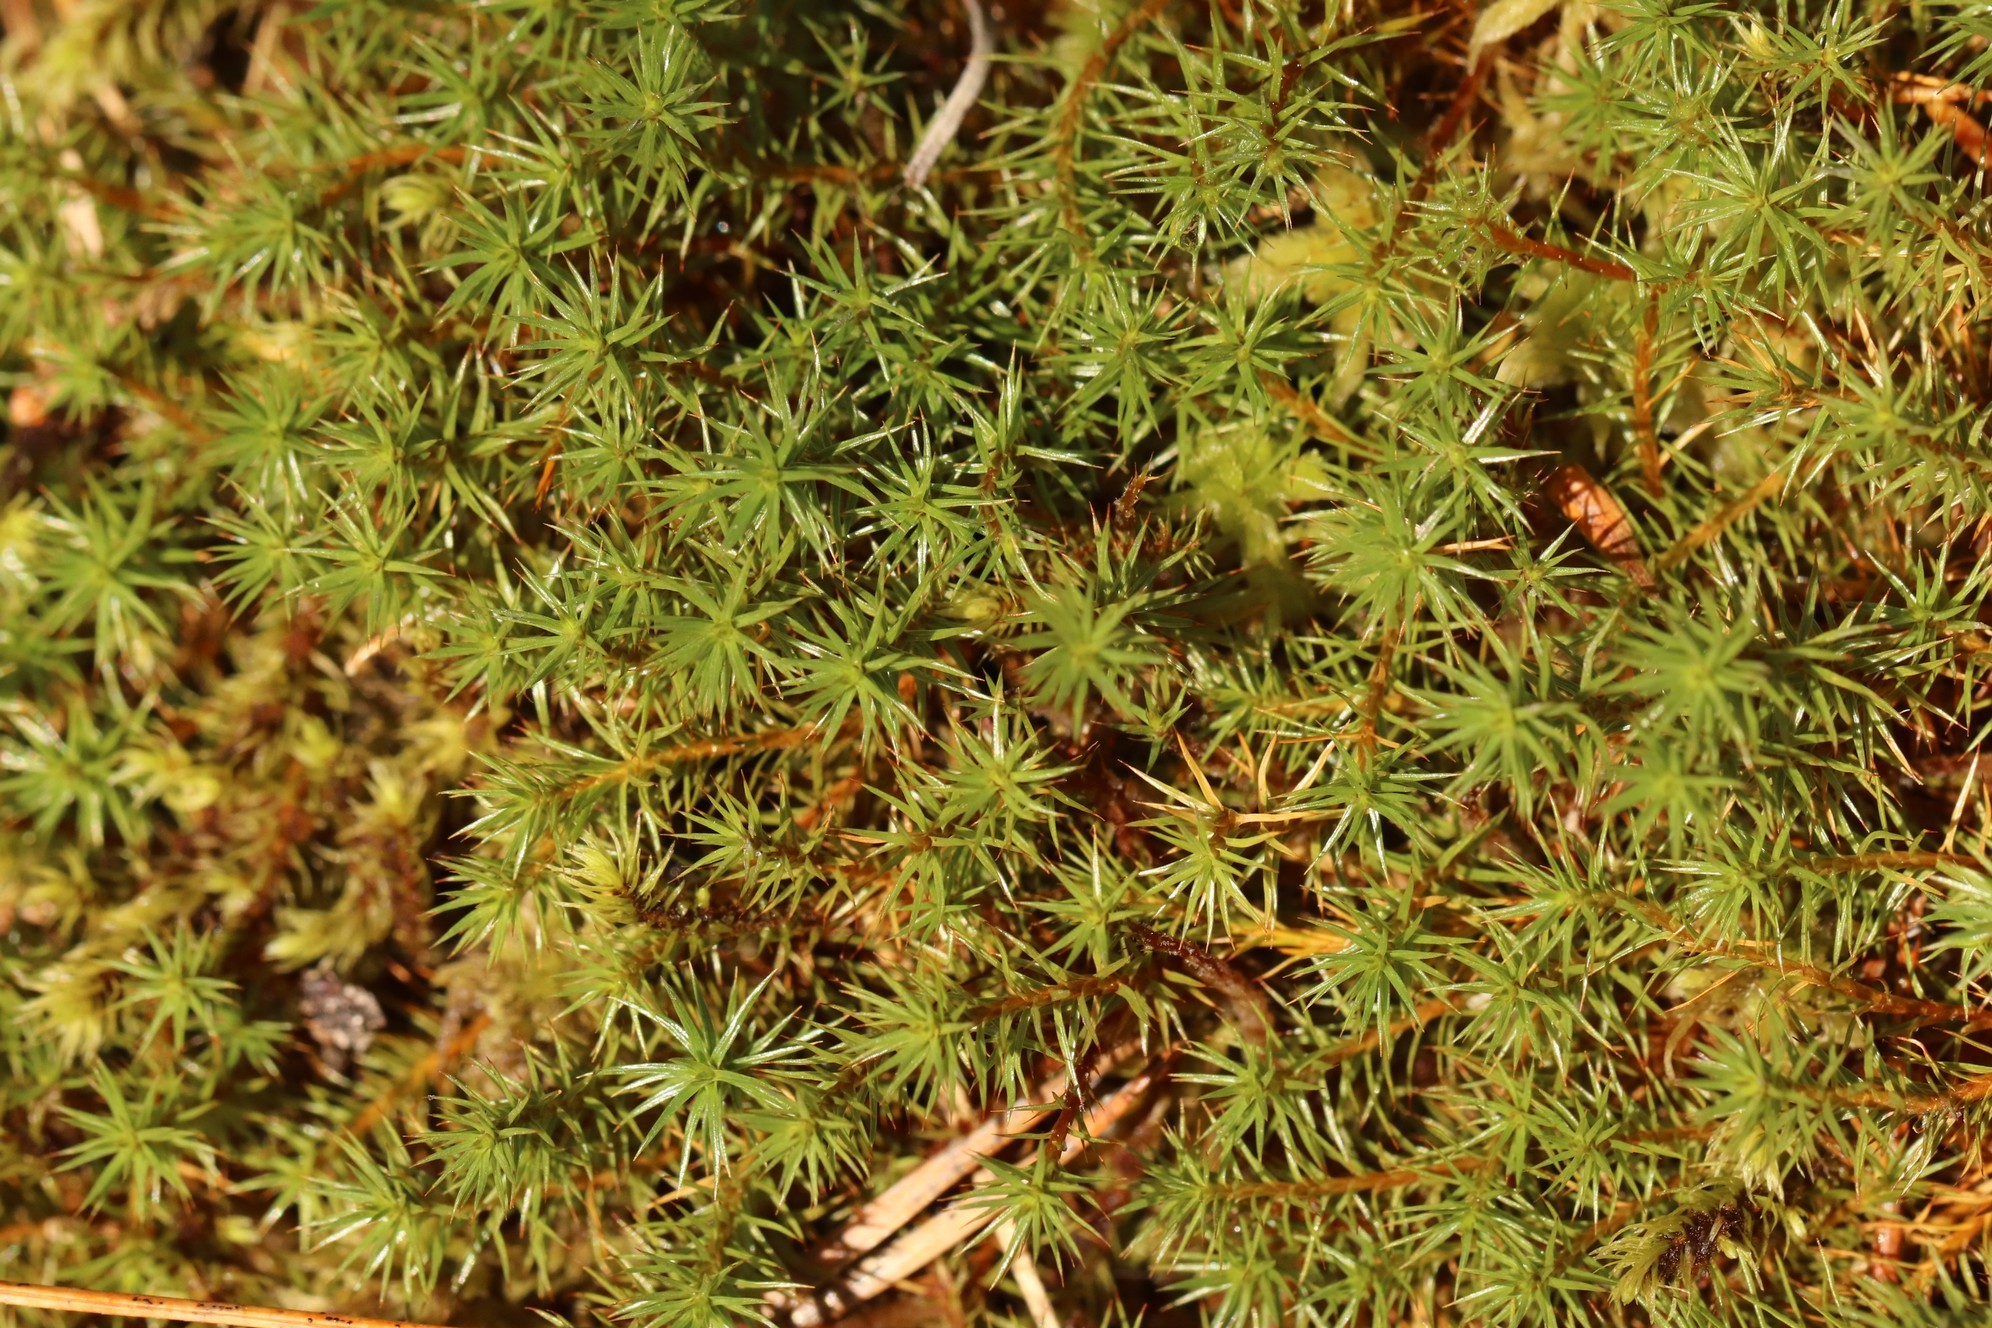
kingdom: Plantae
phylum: Bryophyta
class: Polytrichopsida
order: Polytrichales
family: Polytrichaceae
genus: Polytrichum
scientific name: Polytrichum commune
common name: Common haircap
